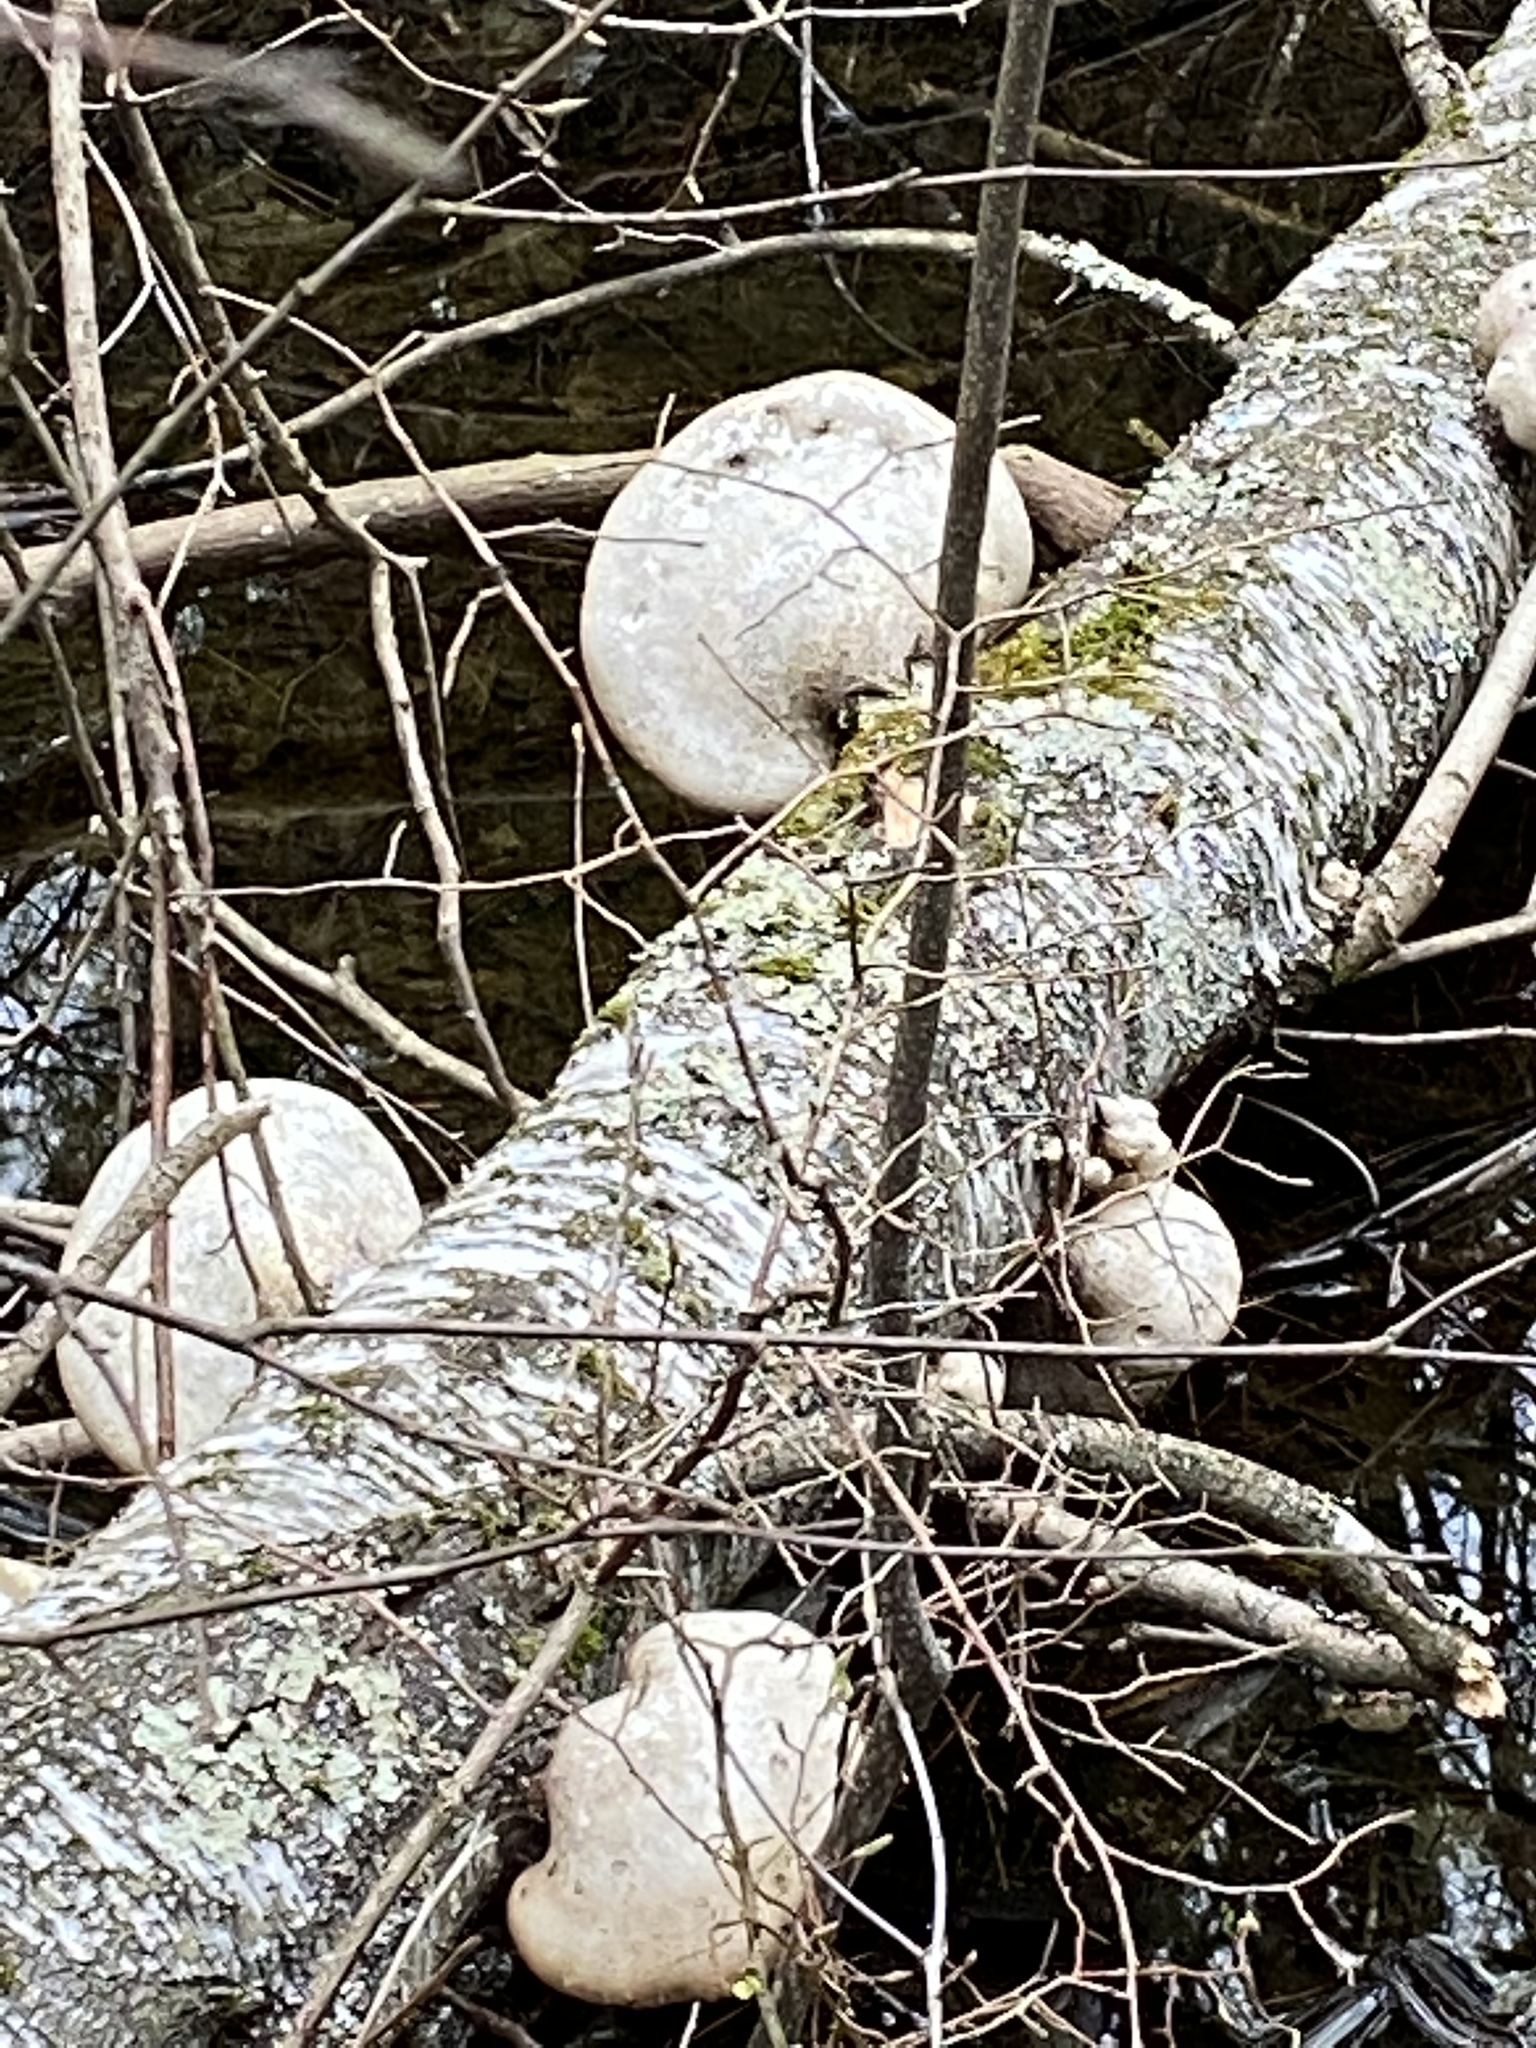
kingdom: Fungi
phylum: Basidiomycota
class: Agaricomycetes
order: Polyporales
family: Fomitopsidaceae
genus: Fomitopsis
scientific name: Fomitopsis betulina
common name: Birch polypore
